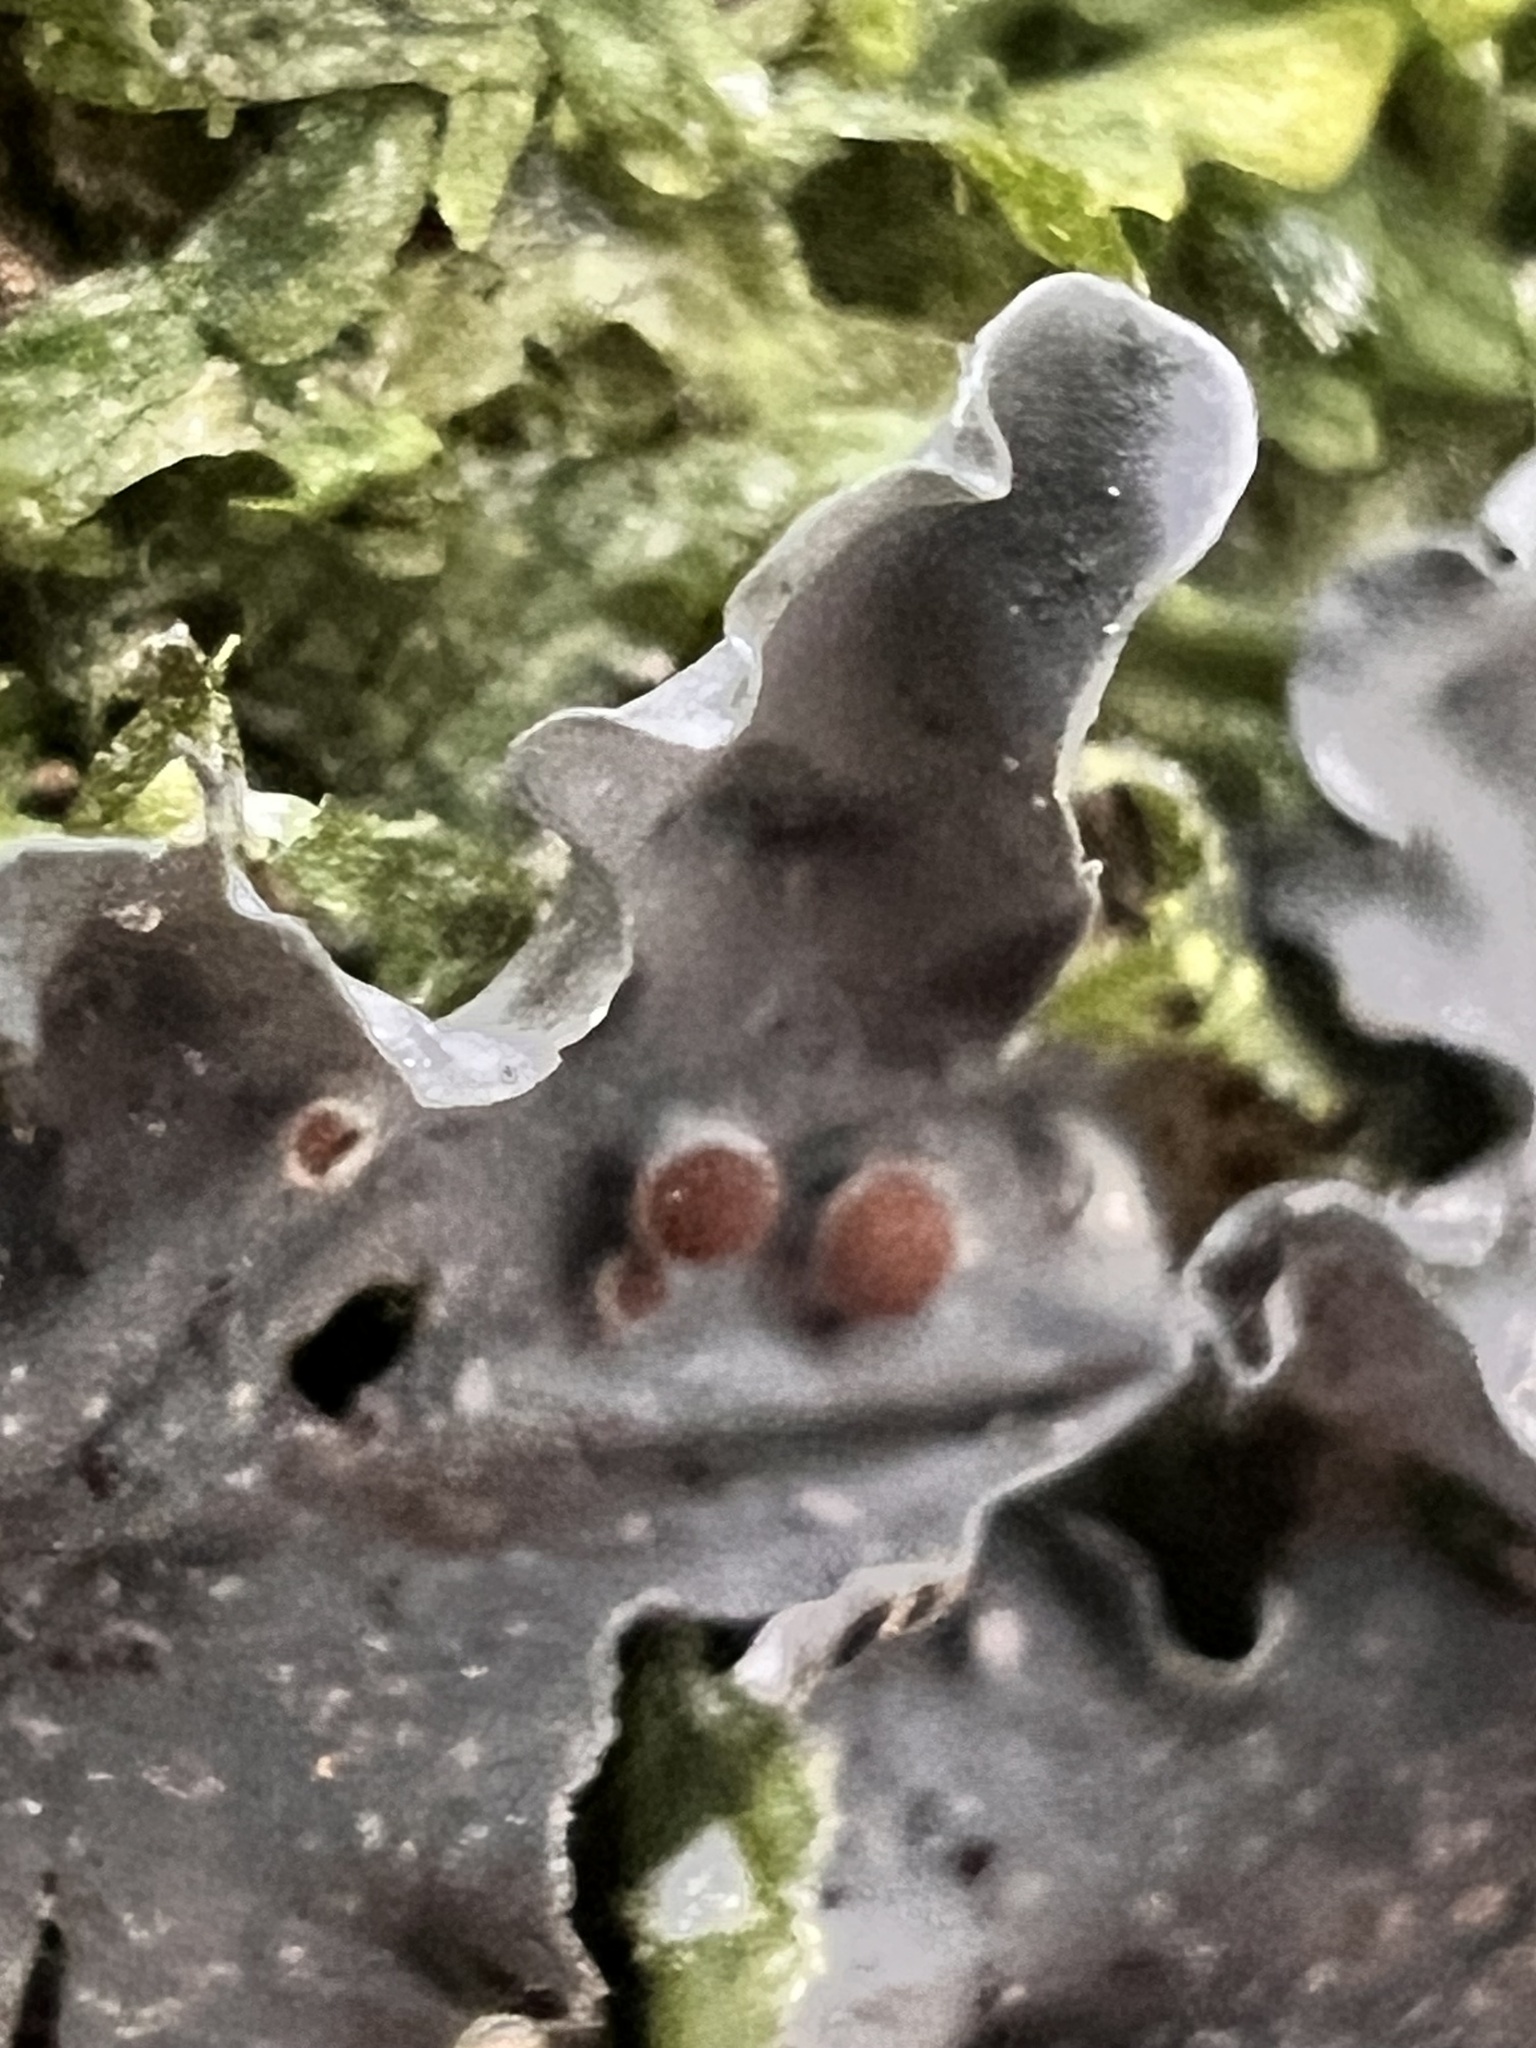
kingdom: Fungi
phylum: Ascomycota
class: Lecanoromycetes
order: Peltigerales
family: Lobariaceae
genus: Pseudocyphellaria
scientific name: Pseudocyphellaria dissimilis
